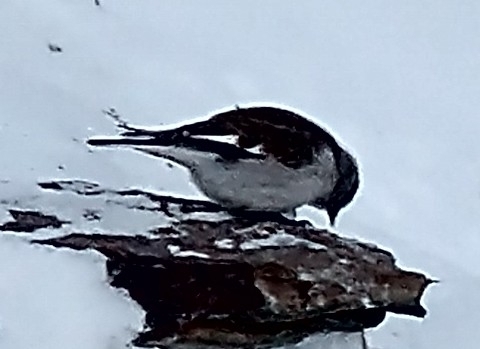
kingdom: Animalia
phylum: Chordata
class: Aves
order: Passeriformes
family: Passeridae
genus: Montifringilla
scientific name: Montifringilla nivalis
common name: White-winged snowfinch
